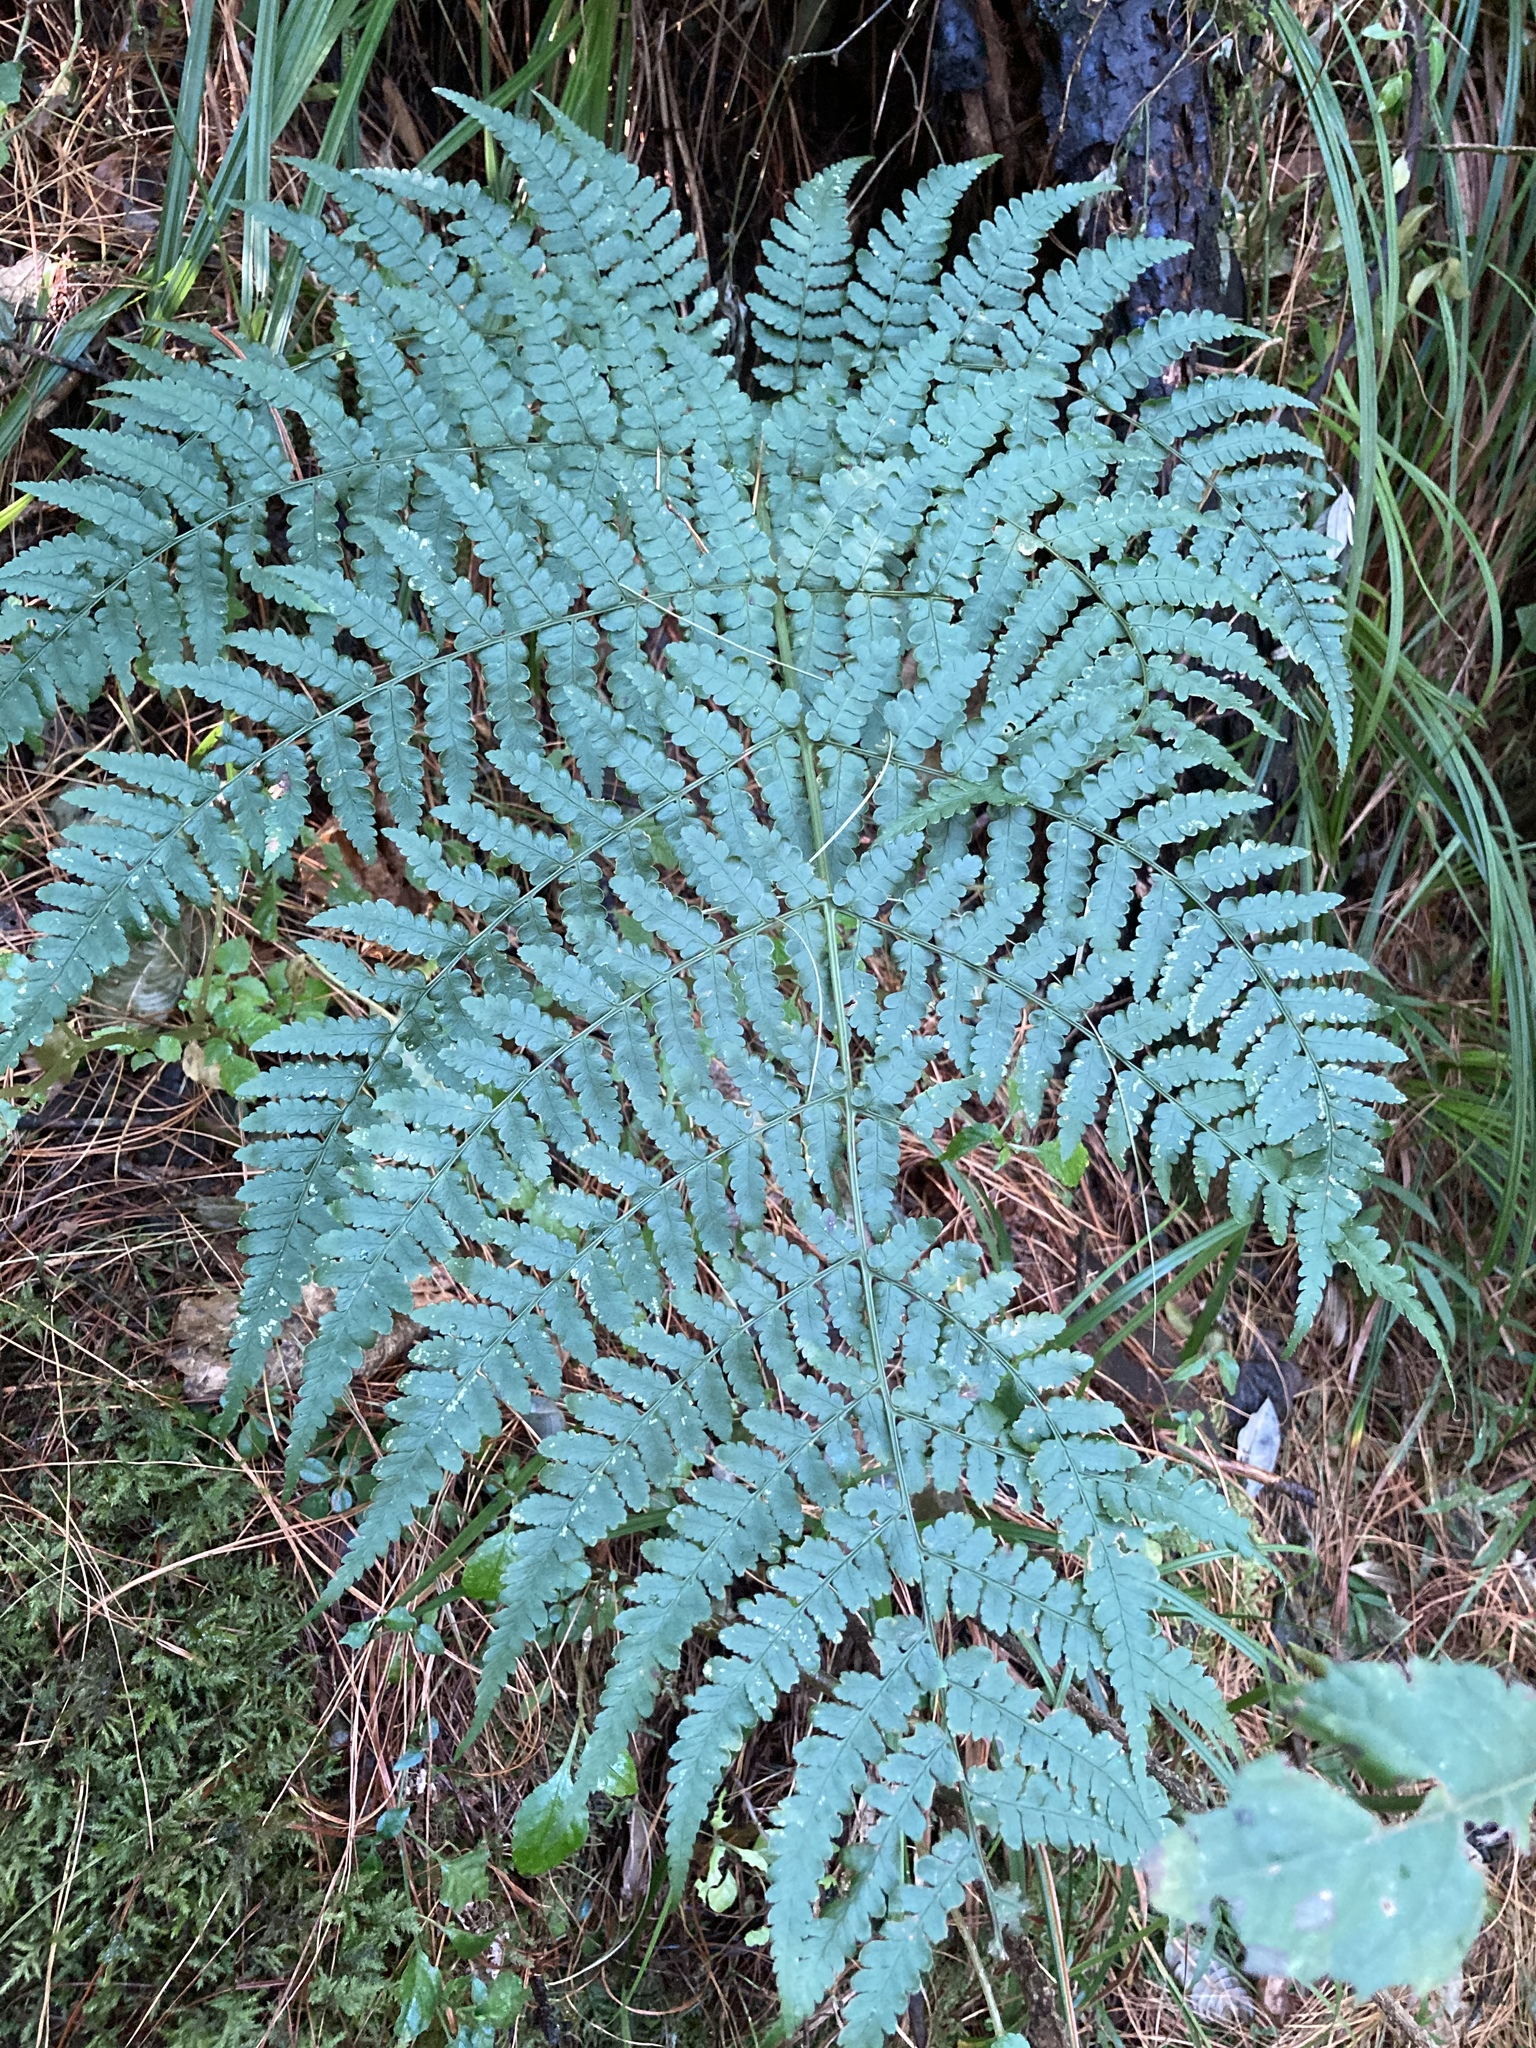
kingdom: Plantae
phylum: Tracheophyta
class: Polypodiopsida
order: Polypodiales
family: Dryopteridaceae
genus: Dryopteris
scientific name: Dryopteris lewalleana
